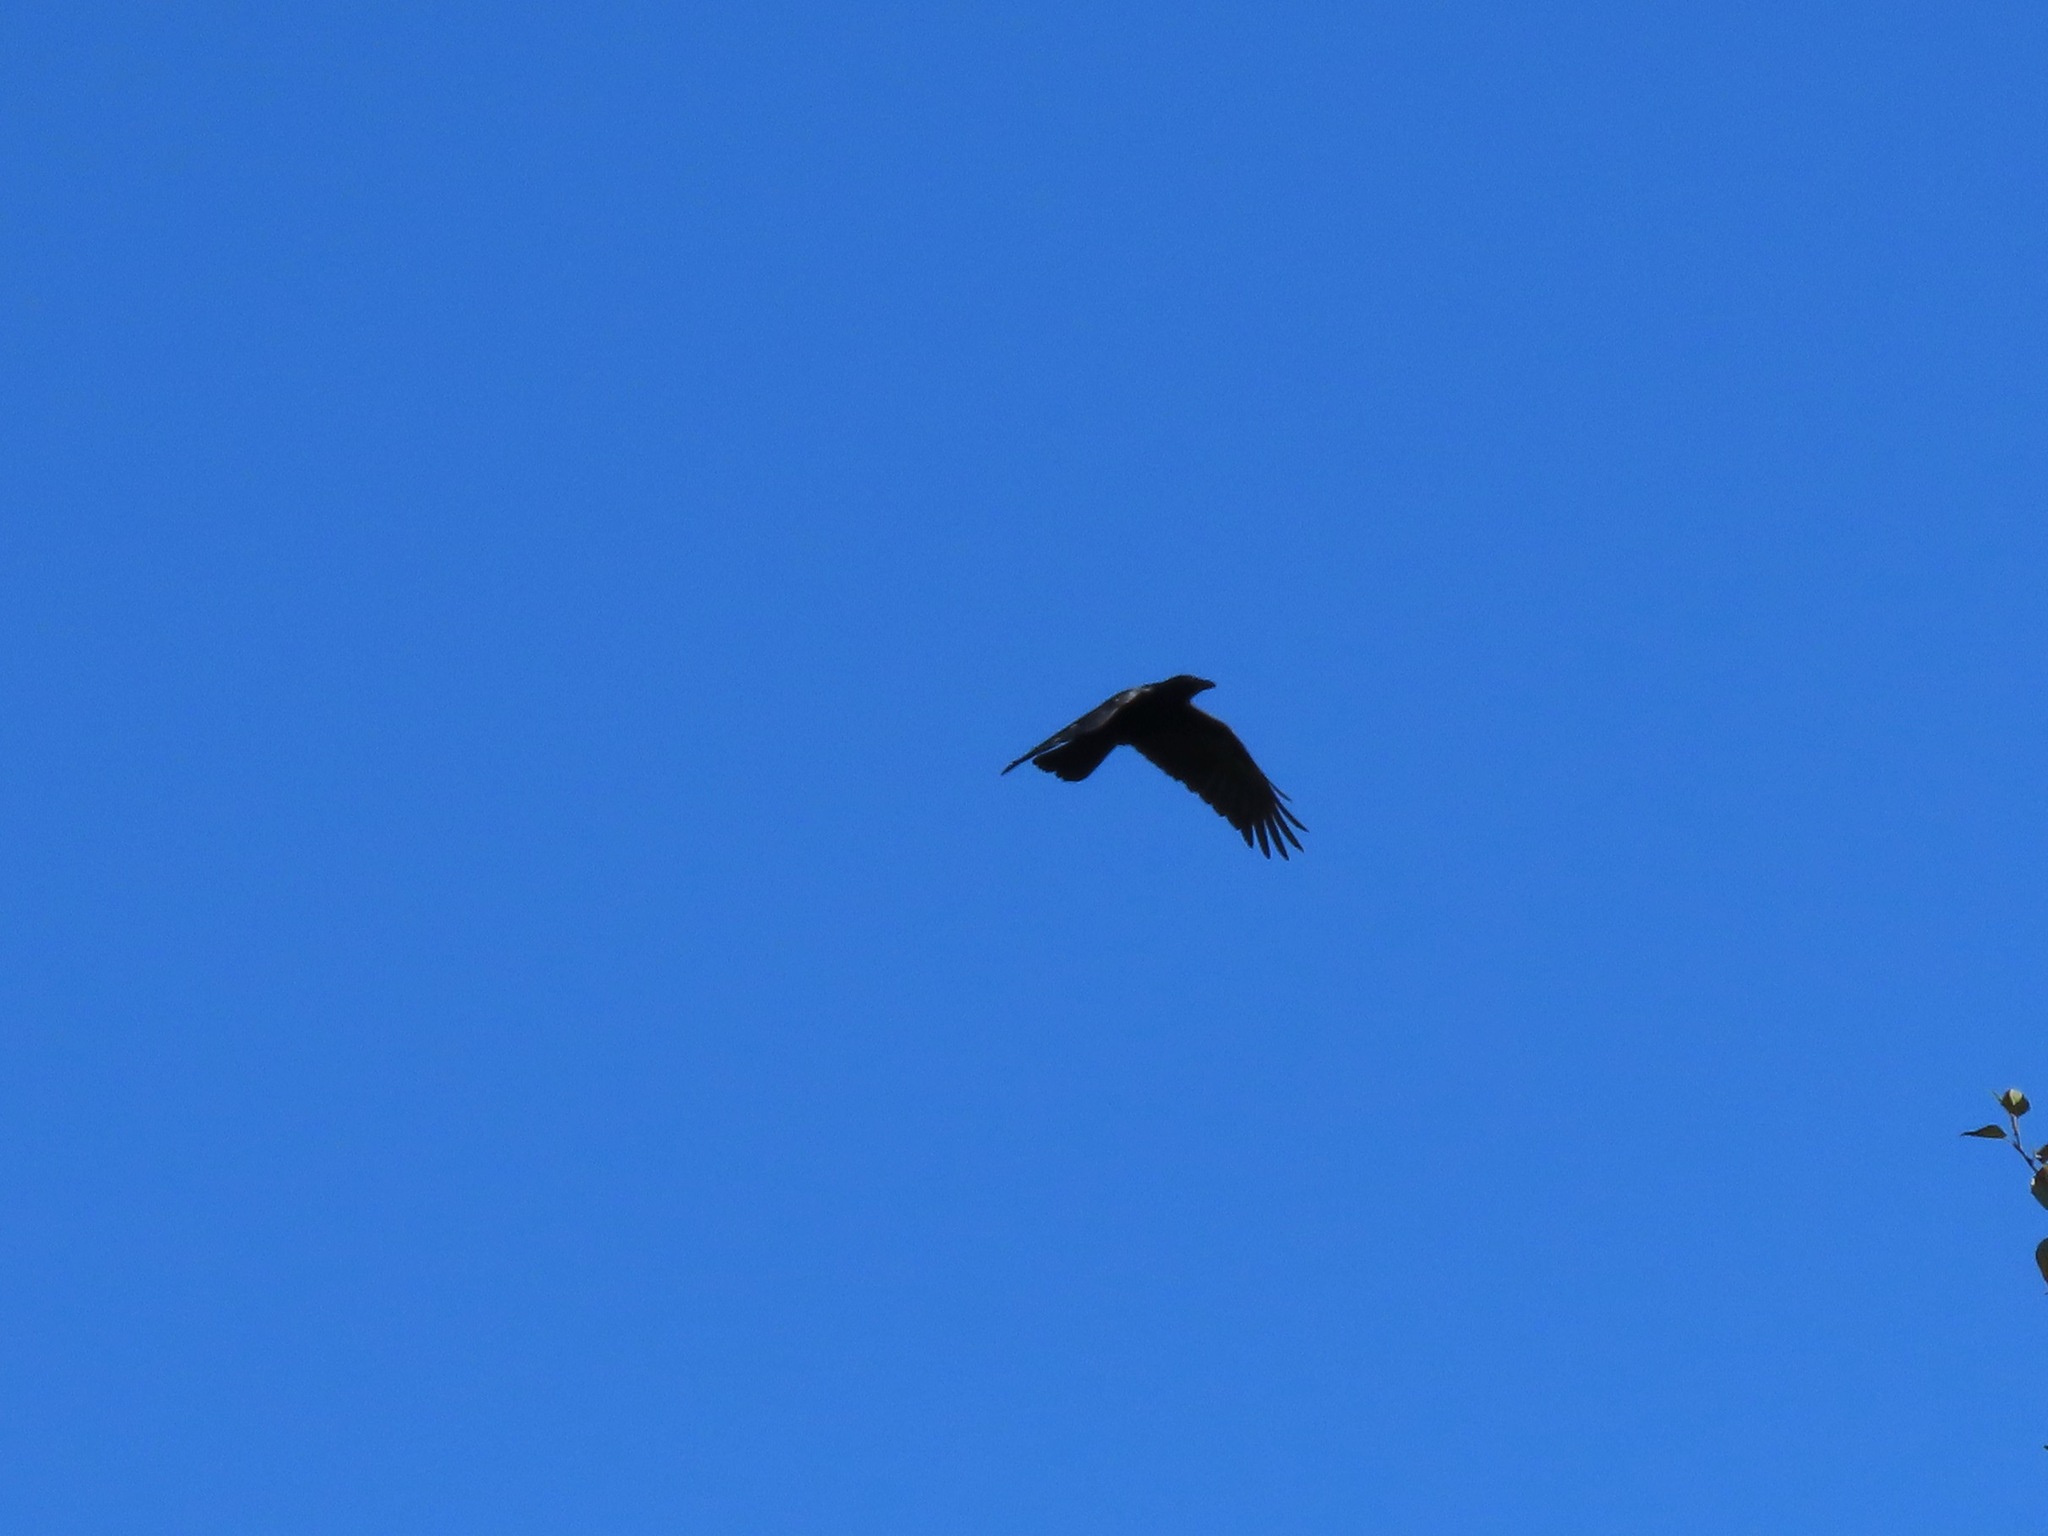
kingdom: Animalia
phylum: Chordata
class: Aves
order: Passeriformes
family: Corvidae
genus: Corvus
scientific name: Corvus corax
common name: Common raven
